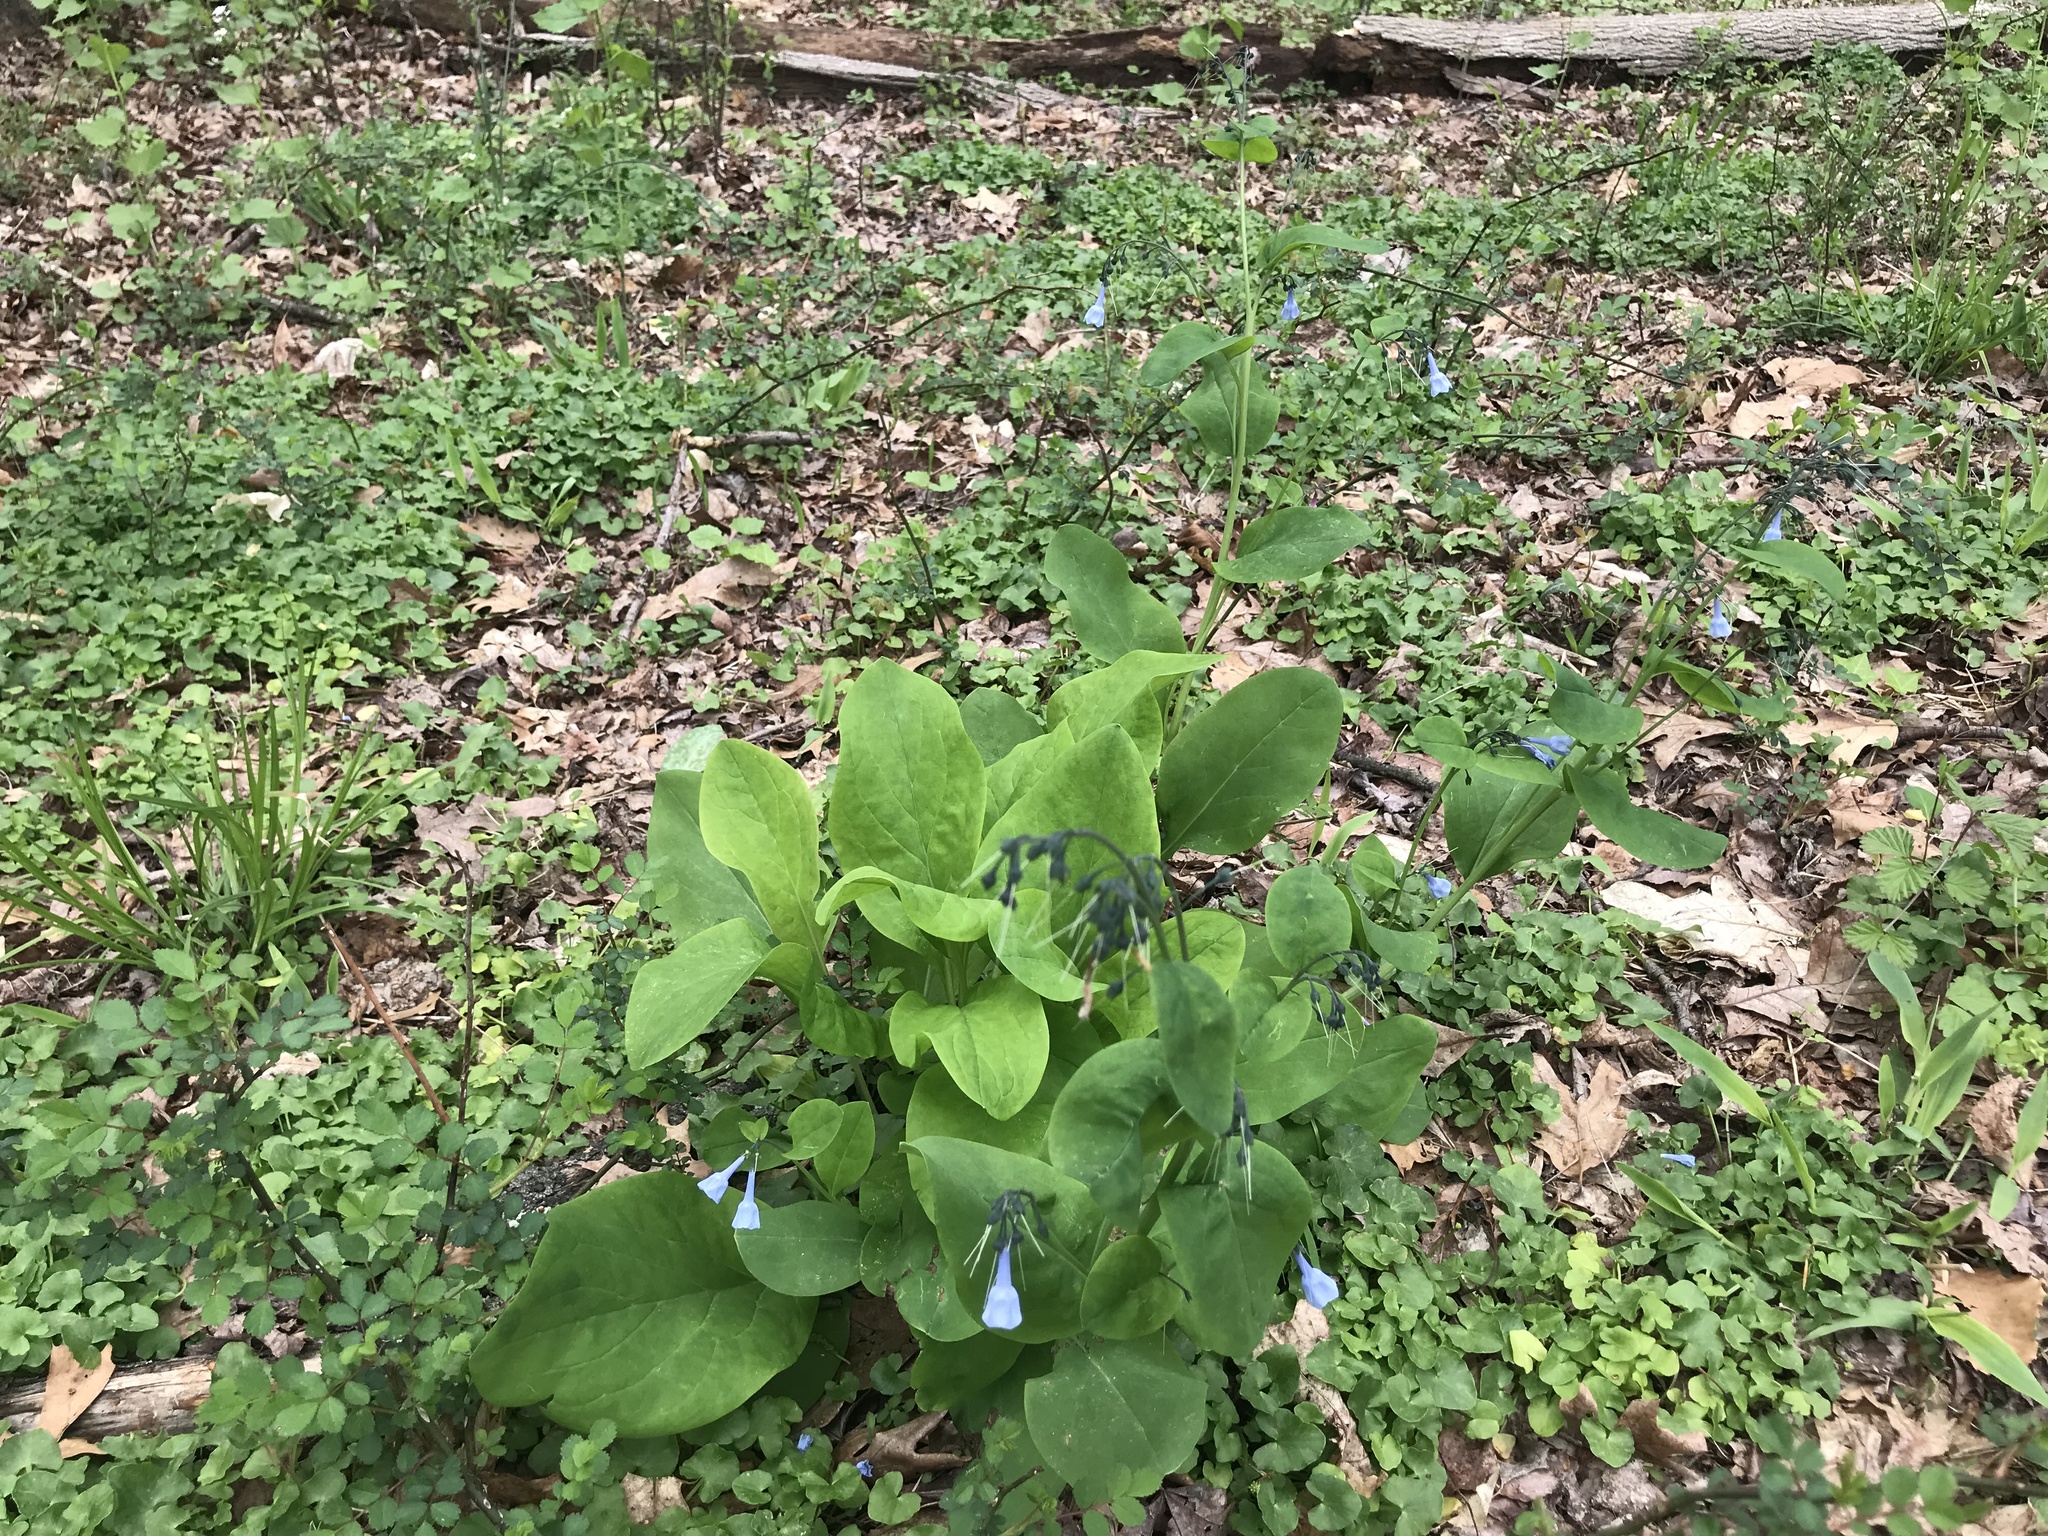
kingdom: Plantae
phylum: Tracheophyta
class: Magnoliopsida
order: Boraginales
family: Boraginaceae
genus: Mertensia
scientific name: Mertensia virginica
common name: Virginia bluebells
